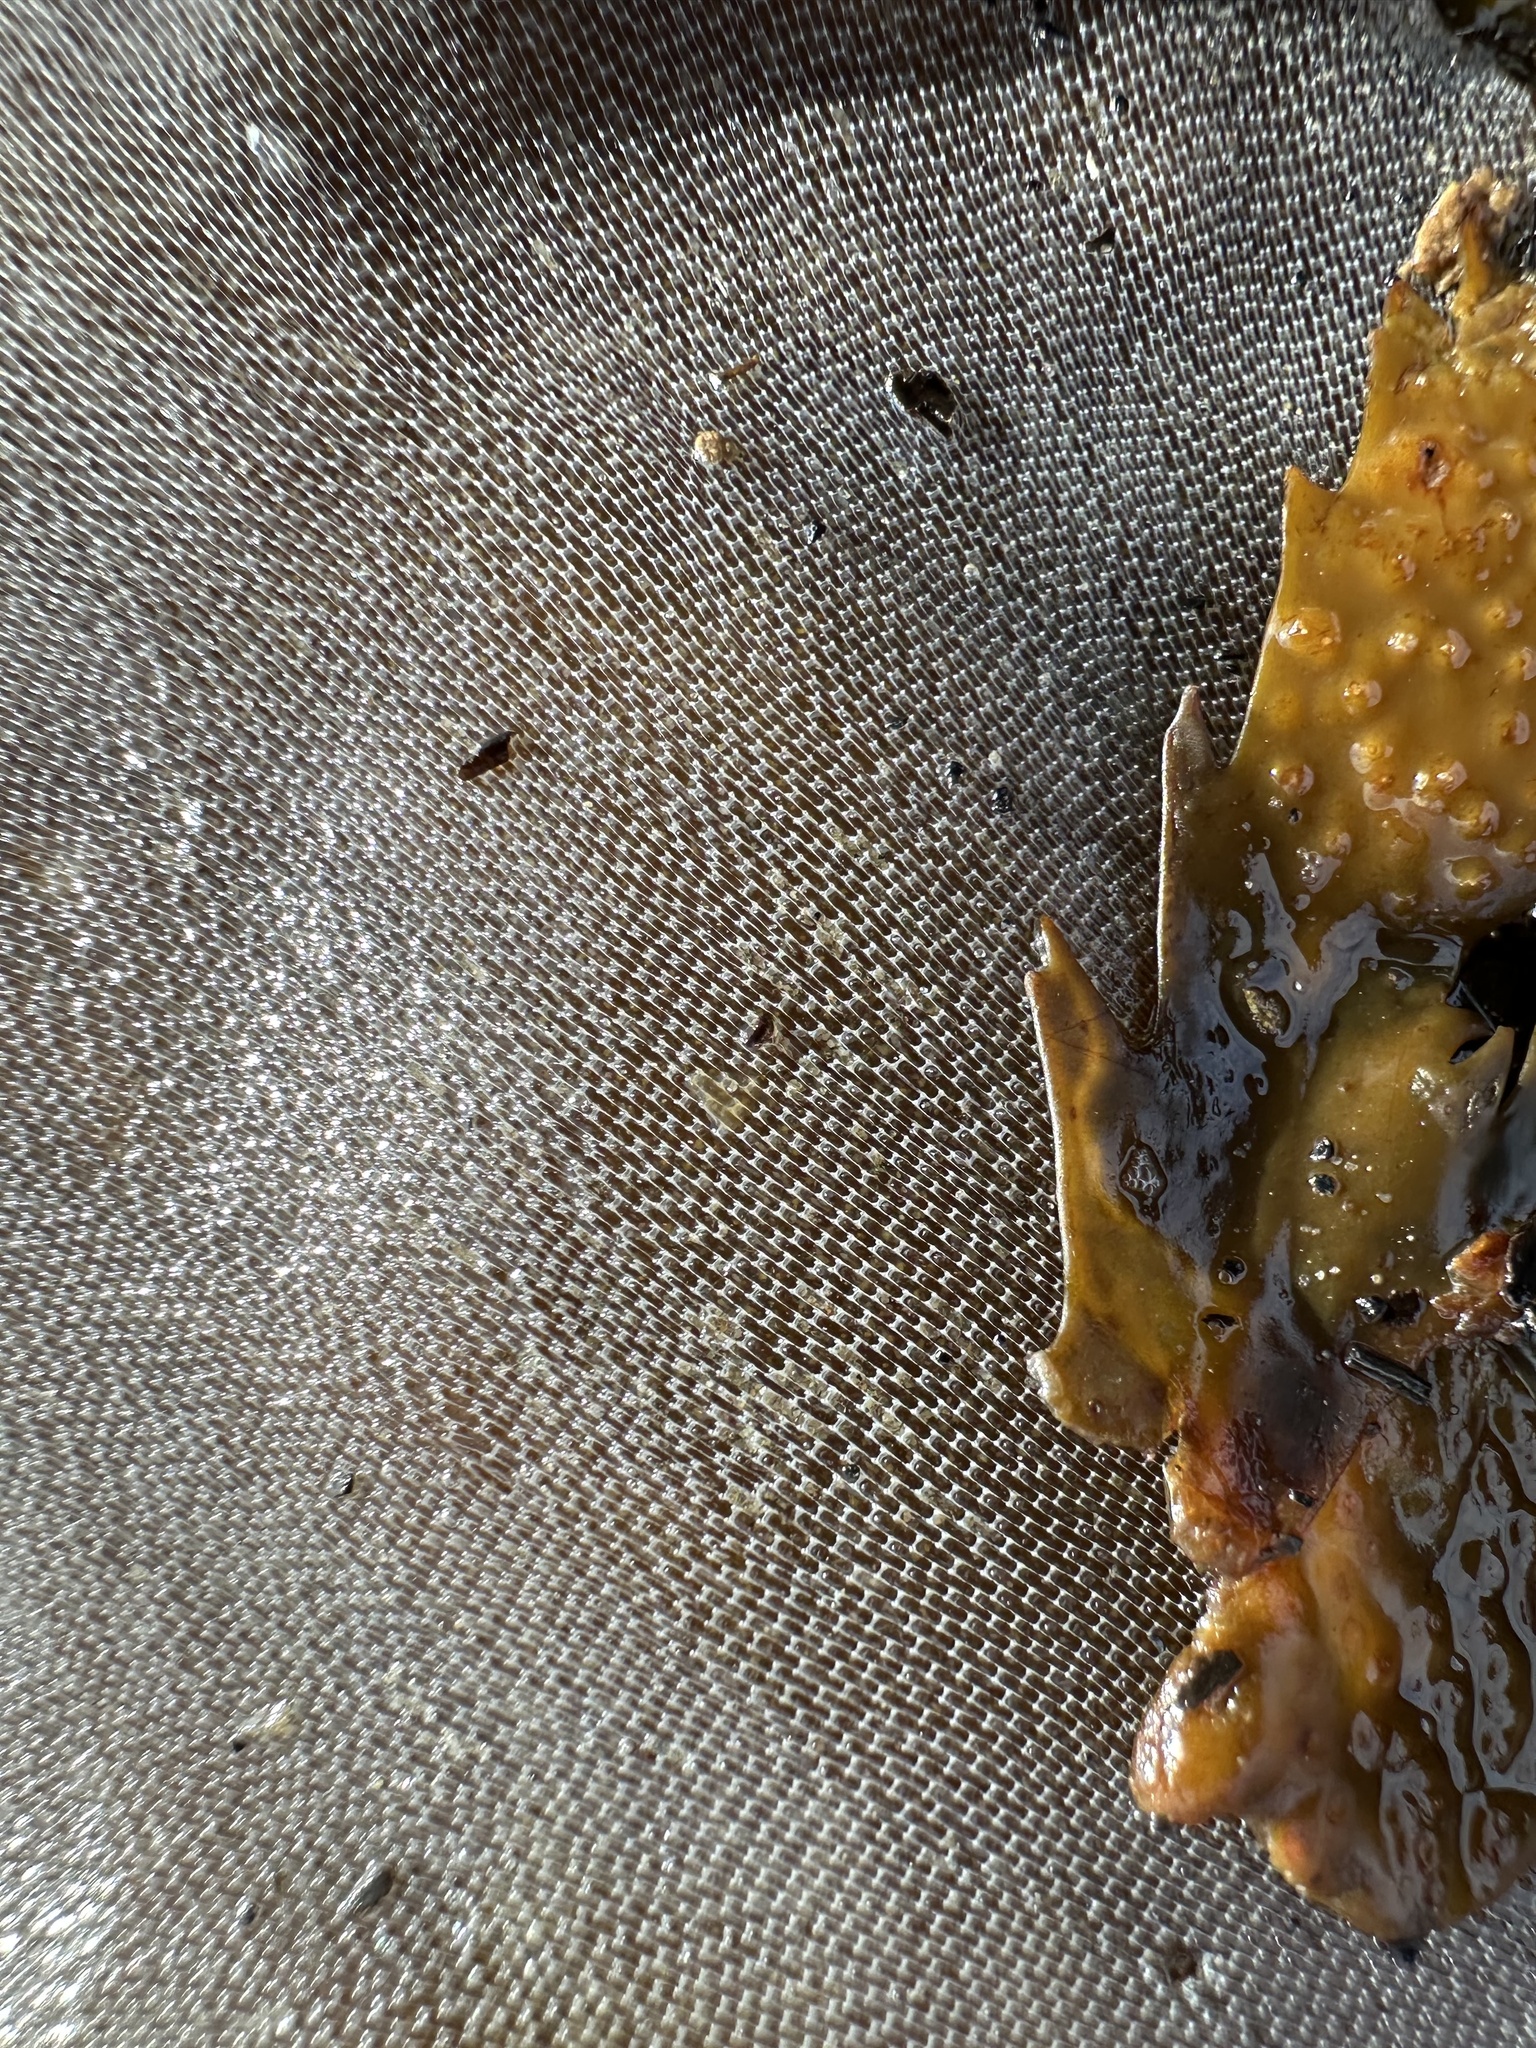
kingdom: Animalia
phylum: Bryozoa
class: Gymnolaemata
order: Cheilostomatida
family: Membraniporidae
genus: Membranipora
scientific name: Membranipora membranacea
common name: Sea mat
